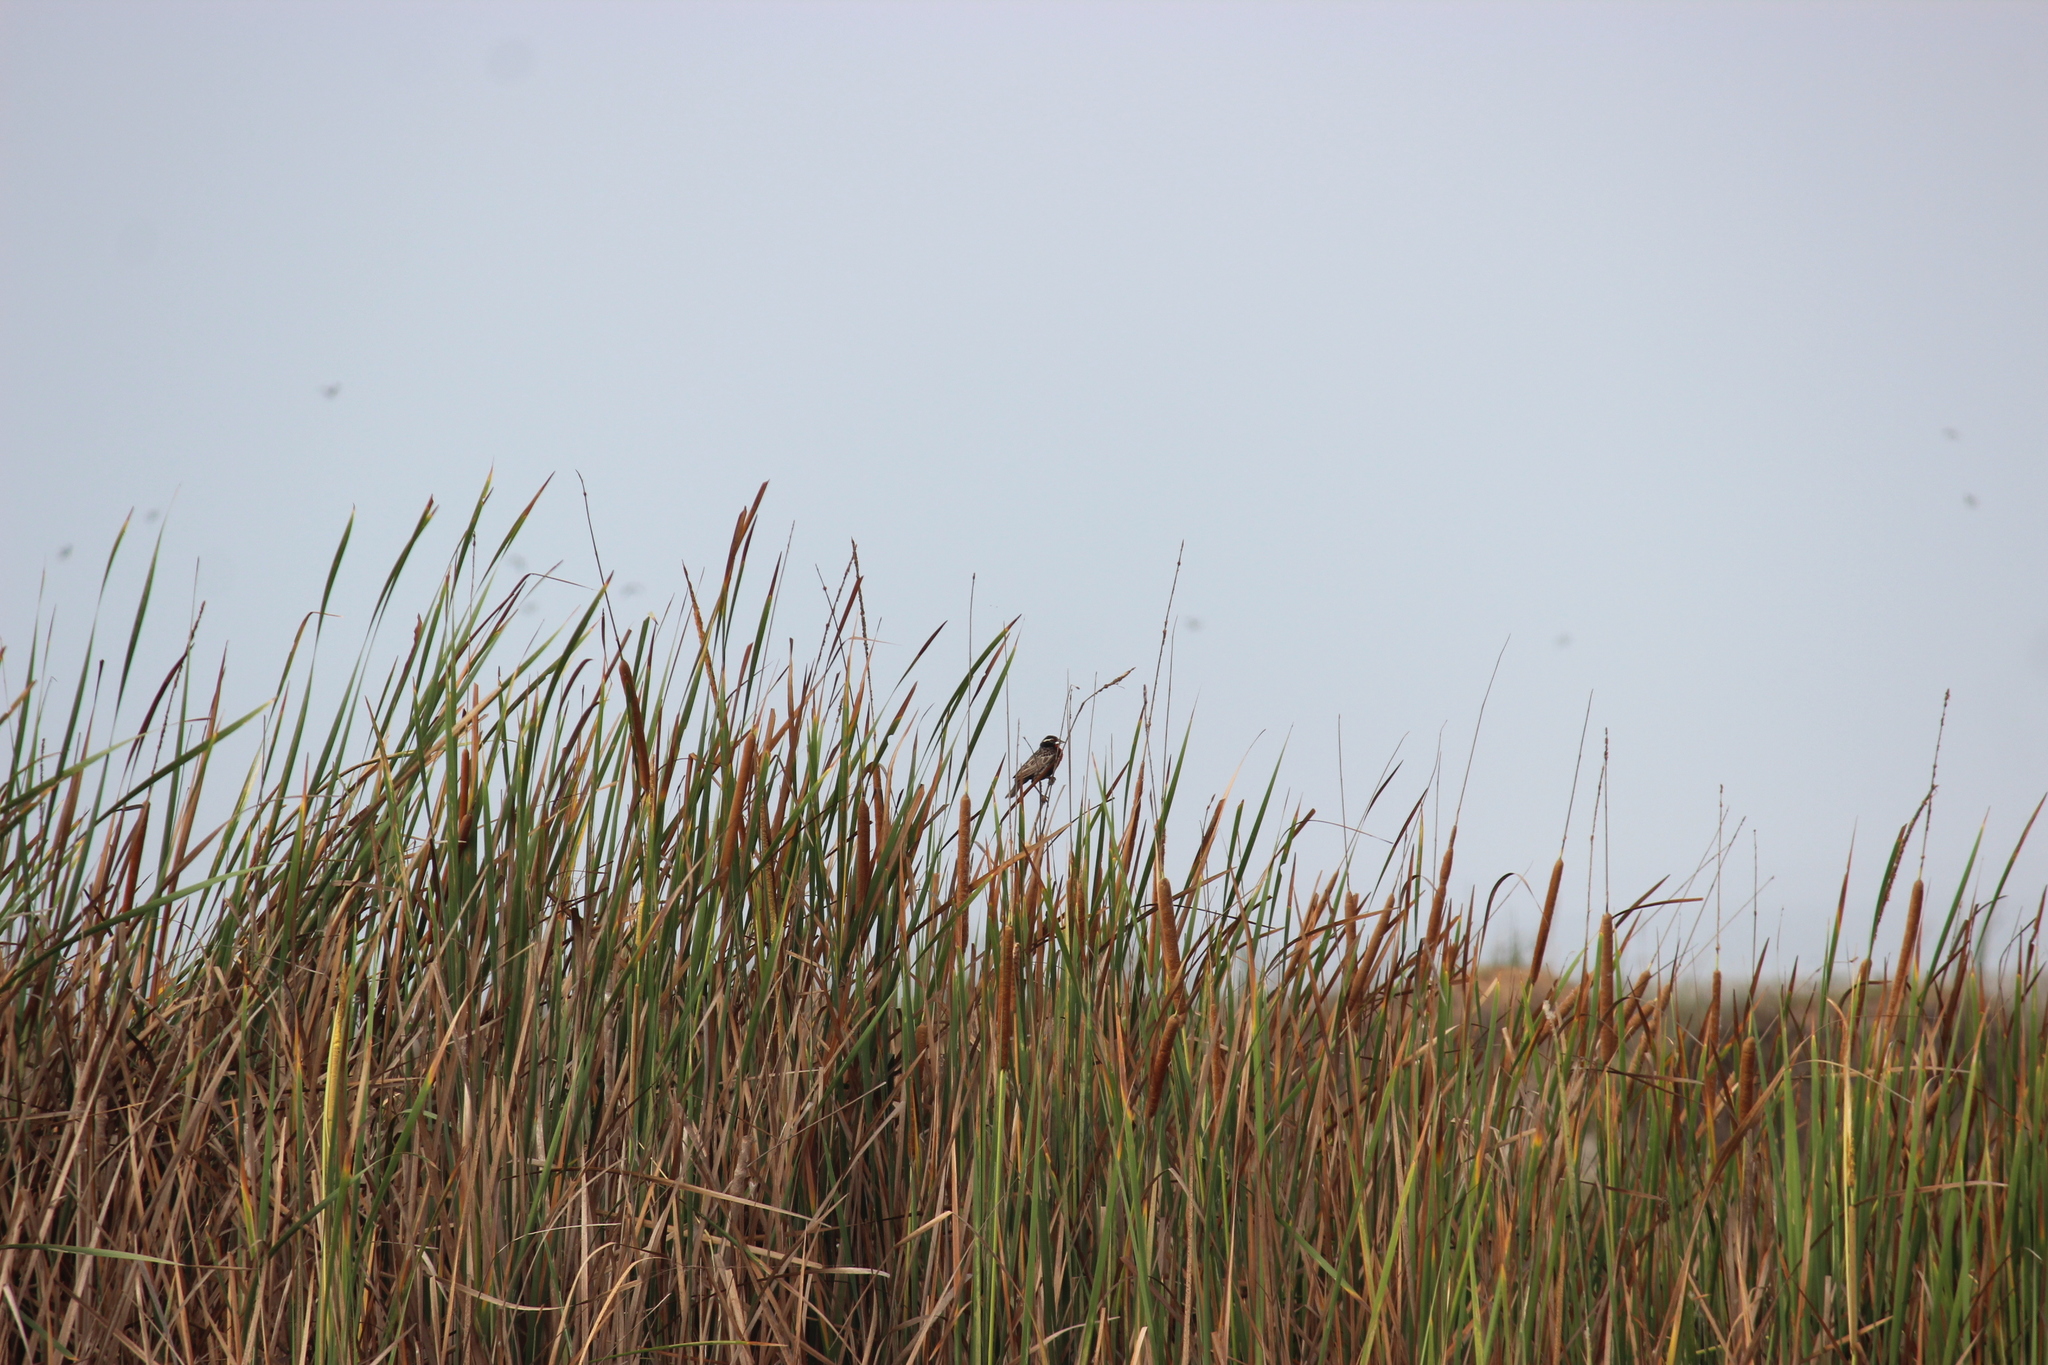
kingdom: Animalia
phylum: Chordata
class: Aves
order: Passeriformes
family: Icteridae
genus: Sturnella
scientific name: Sturnella bellicosa
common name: Peruvian meadowlark
